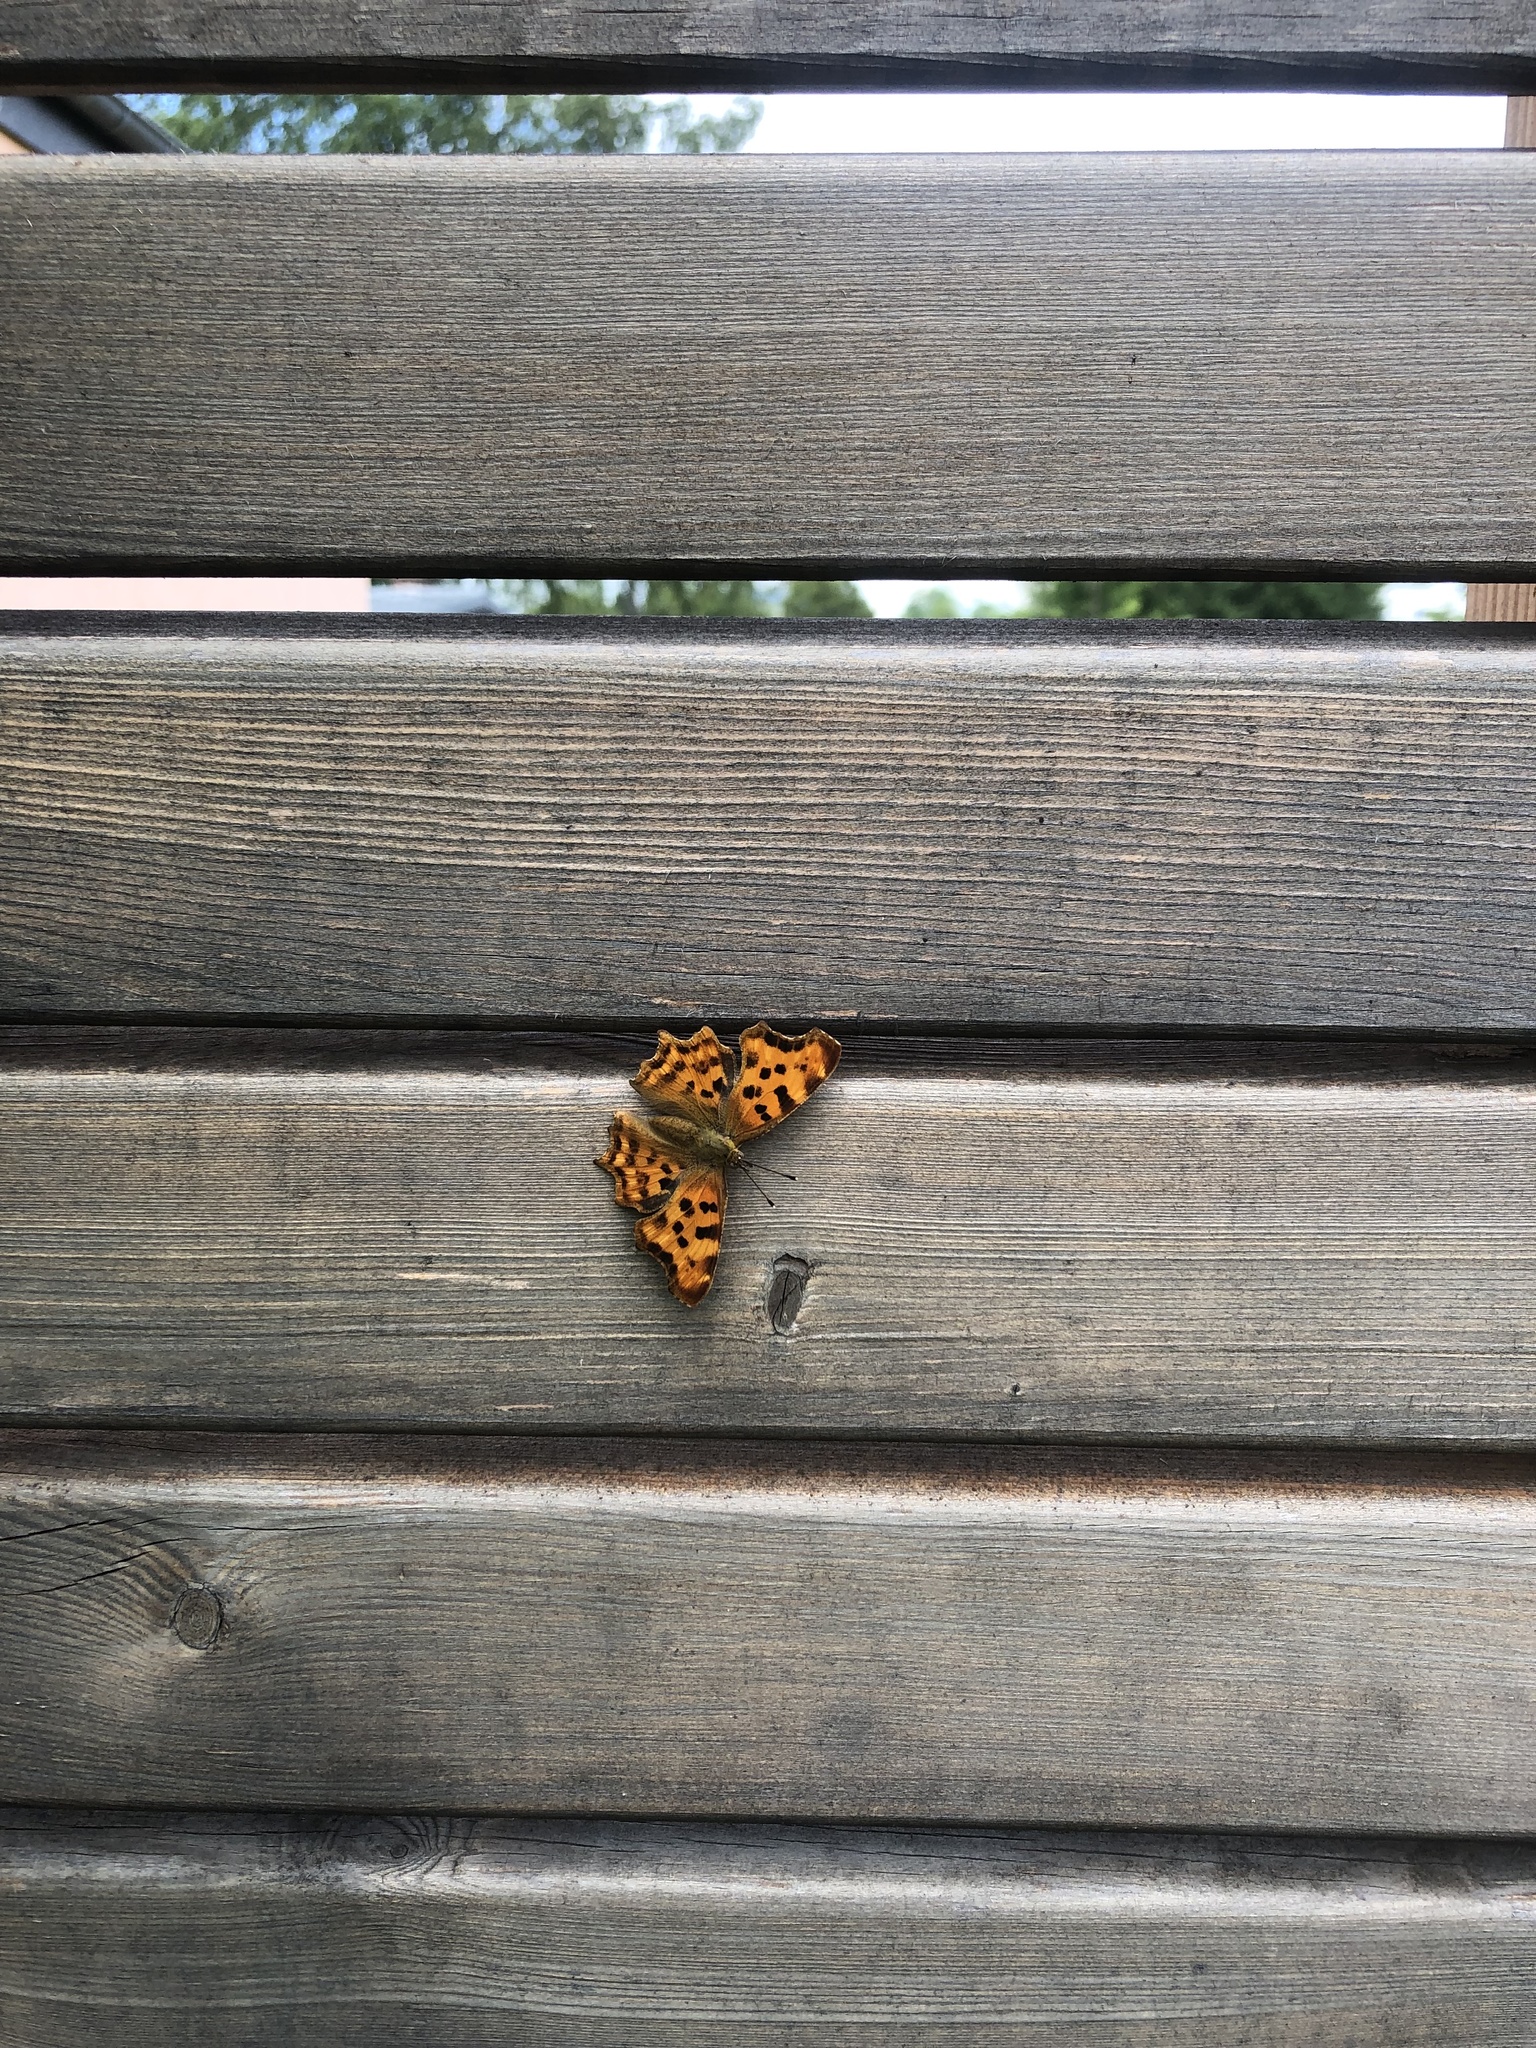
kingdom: Animalia
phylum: Arthropoda
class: Insecta
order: Lepidoptera
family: Nymphalidae
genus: Polygonia
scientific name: Polygonia c-album
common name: Comma
